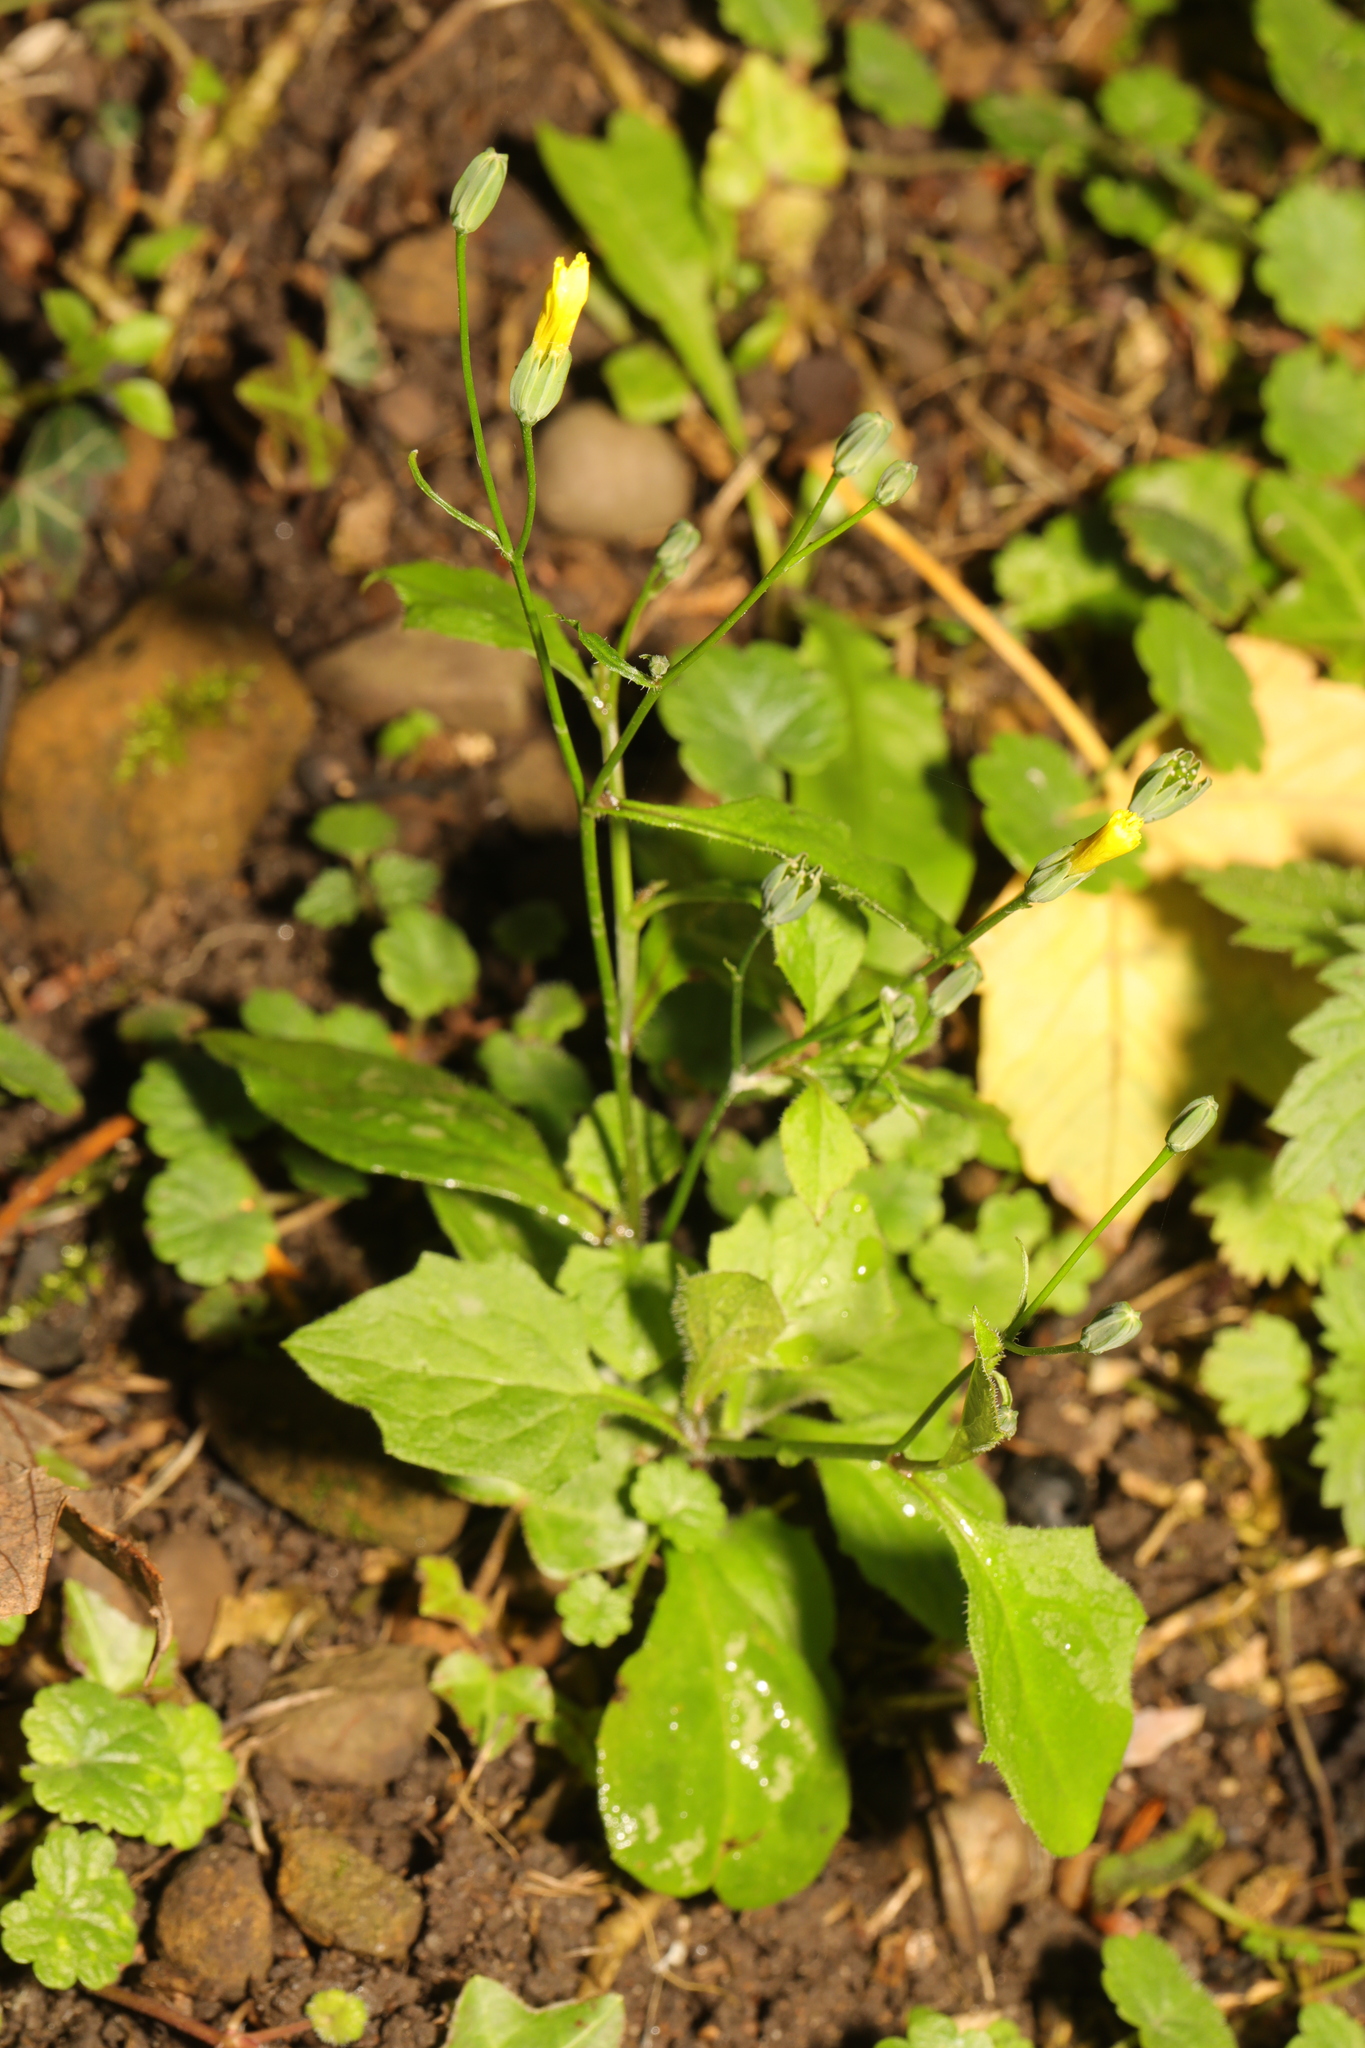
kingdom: Plantae
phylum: Tracheophyta
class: Magnoliopsida
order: Asterales
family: Asteraceae
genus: Lapsana
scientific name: Lapsana communis
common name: Nipplewort
